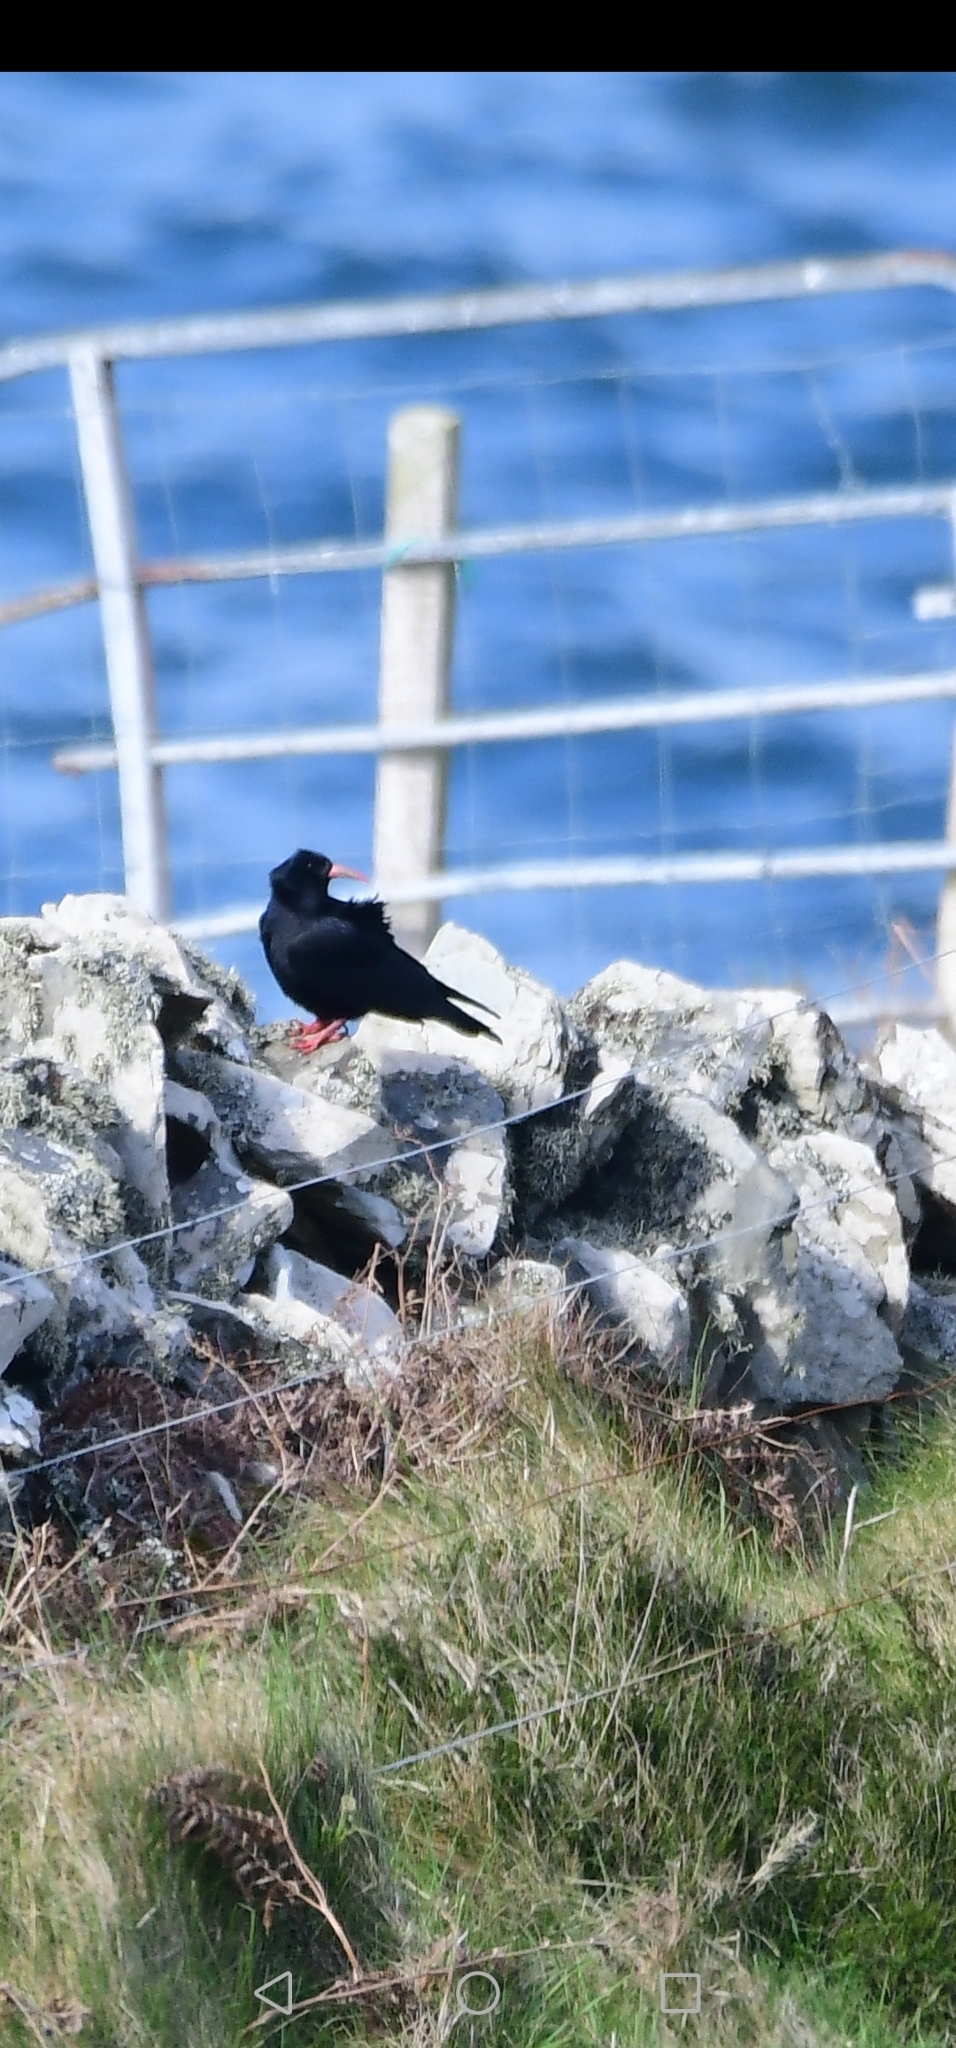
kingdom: Animalia
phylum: Chordata
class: Aves
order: Passeriformes
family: Corvidae
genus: Pyrrhocorax
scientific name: Pyrrhocorax pyrrhocorax
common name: Red-billed chough
